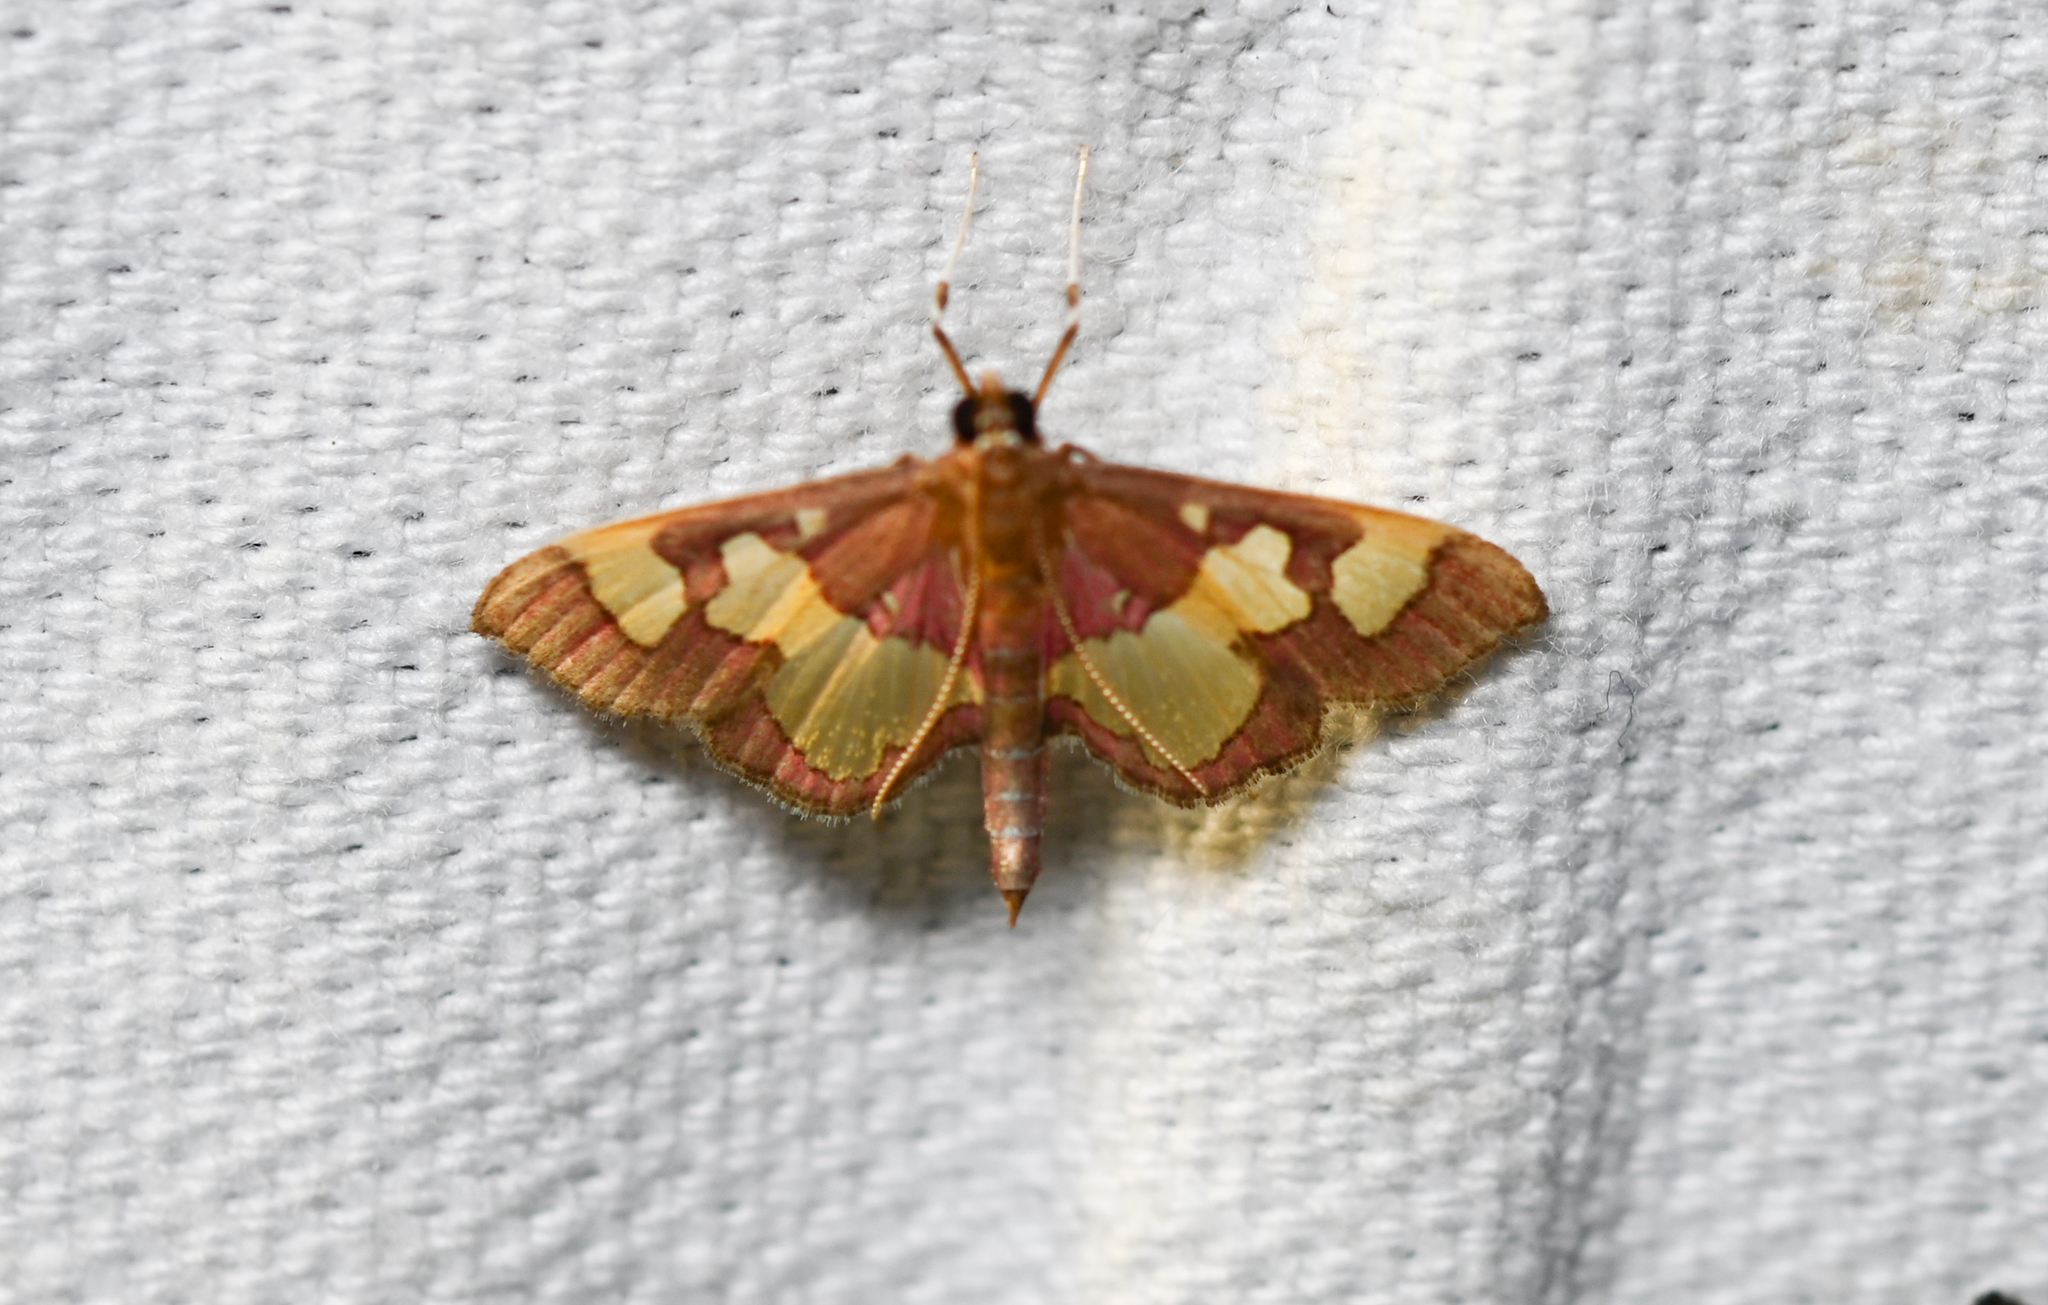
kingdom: Animalia
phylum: Arthropoda
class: Insecta
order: Lepidoptera
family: Crambidae
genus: Colomychus
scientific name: Colomychus talis
